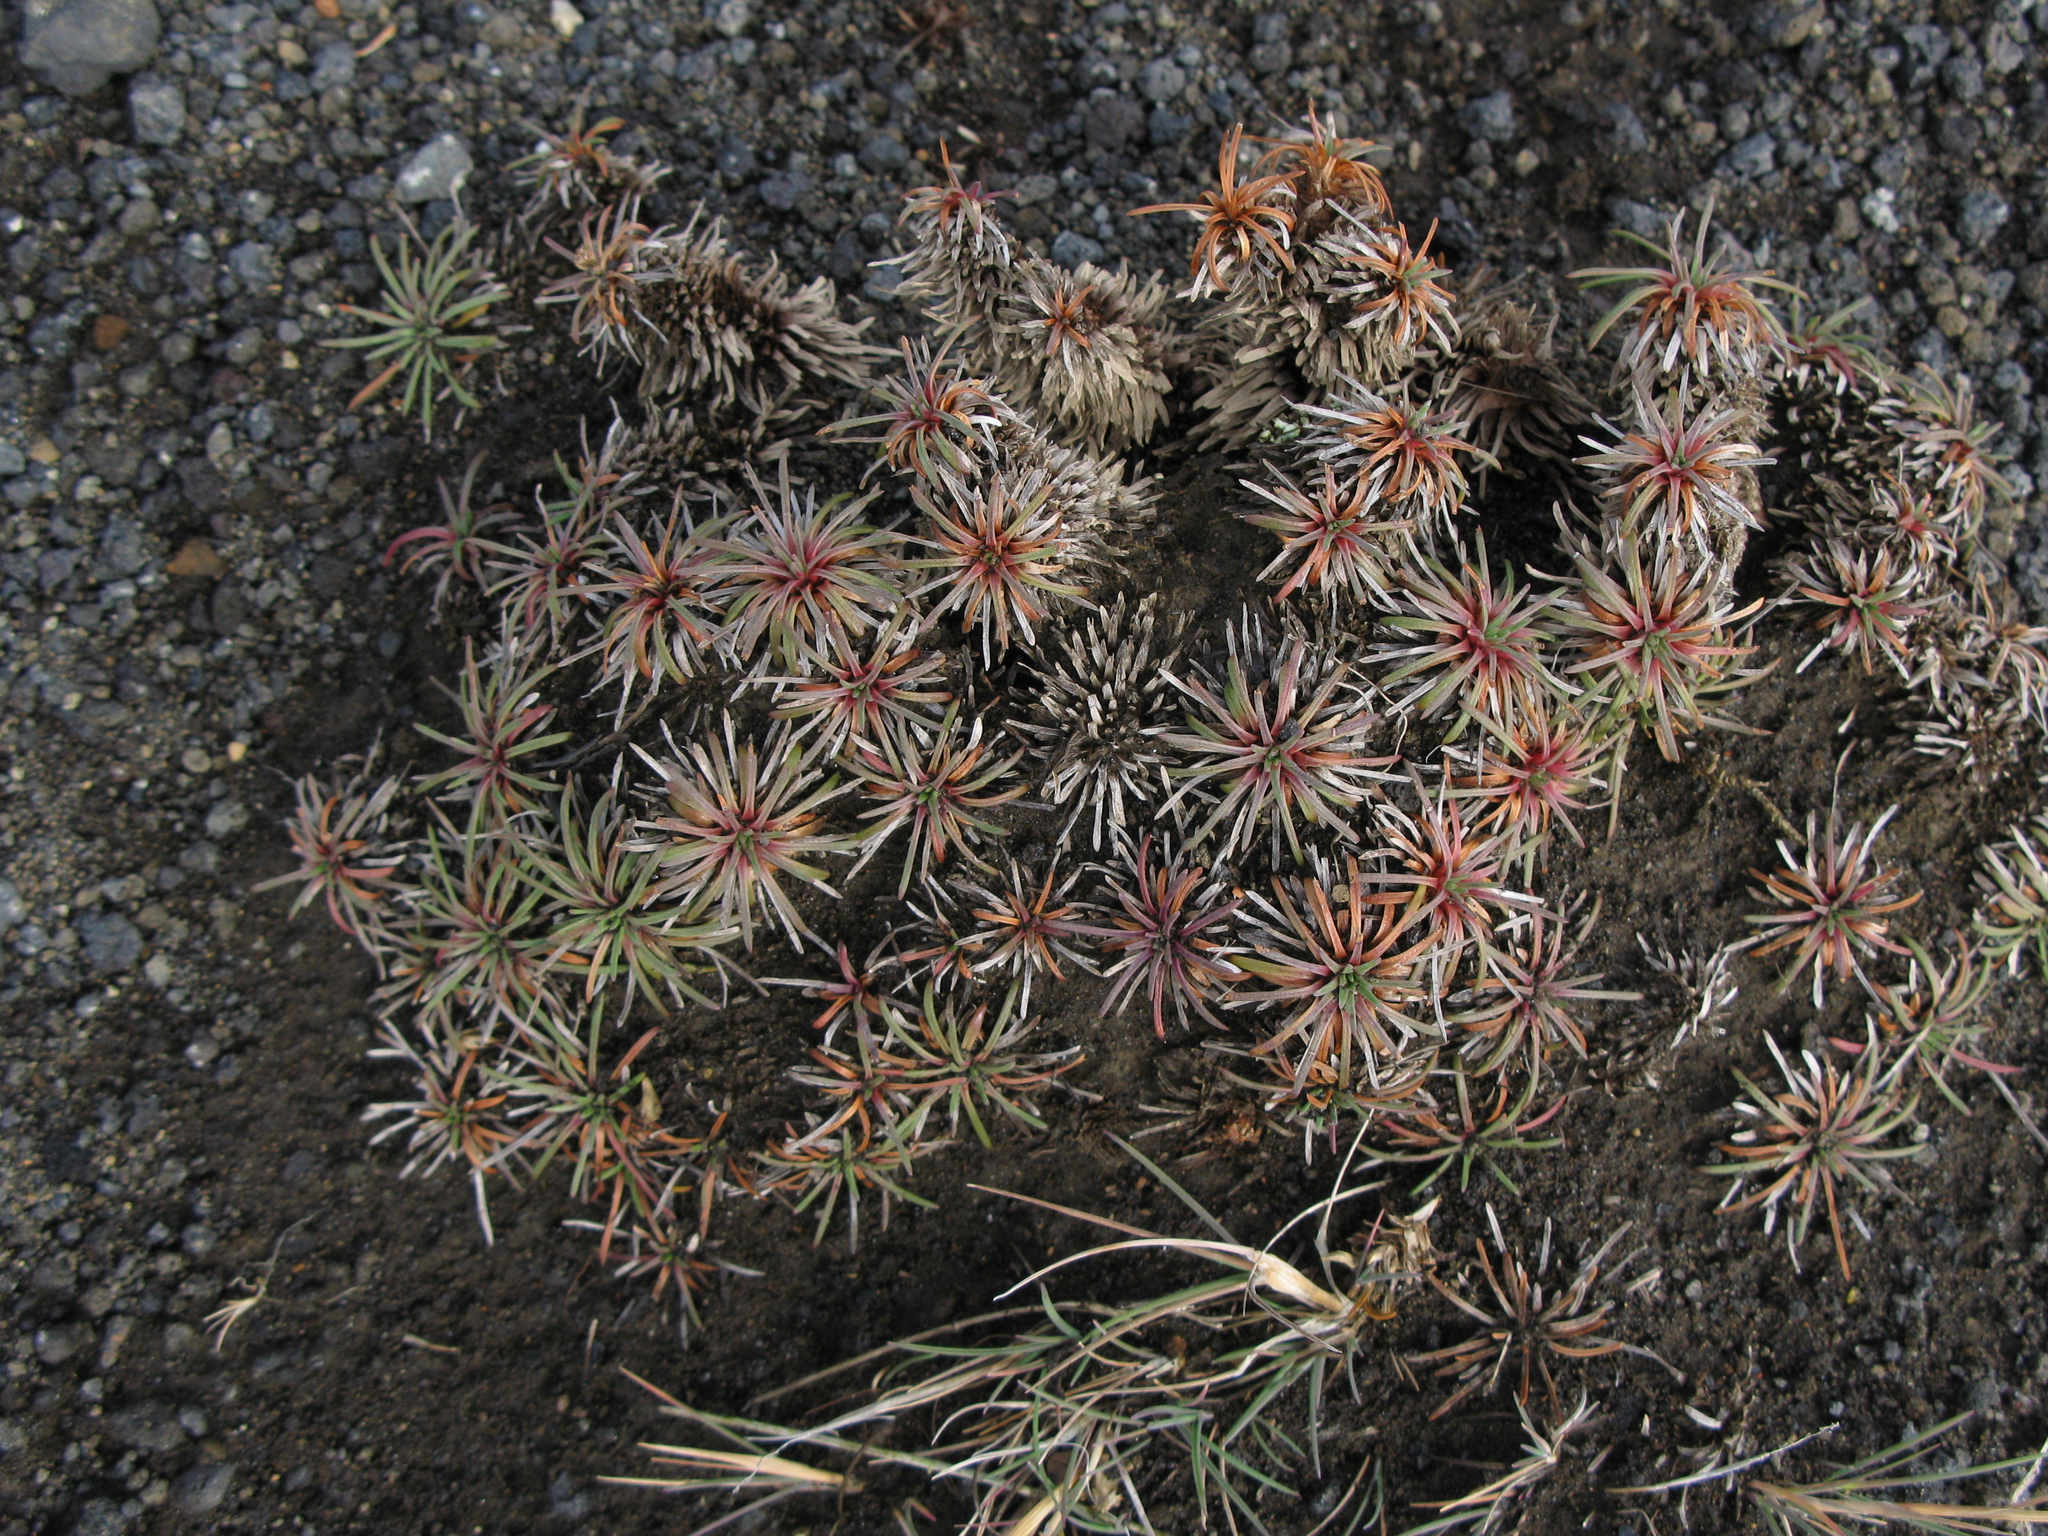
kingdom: Plantae
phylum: Tracheophyta
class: Magnoliopsida
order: Caryophyllales
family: Plumbaginaceae
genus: Armeria
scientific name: Armeria maritima
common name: Thrift
